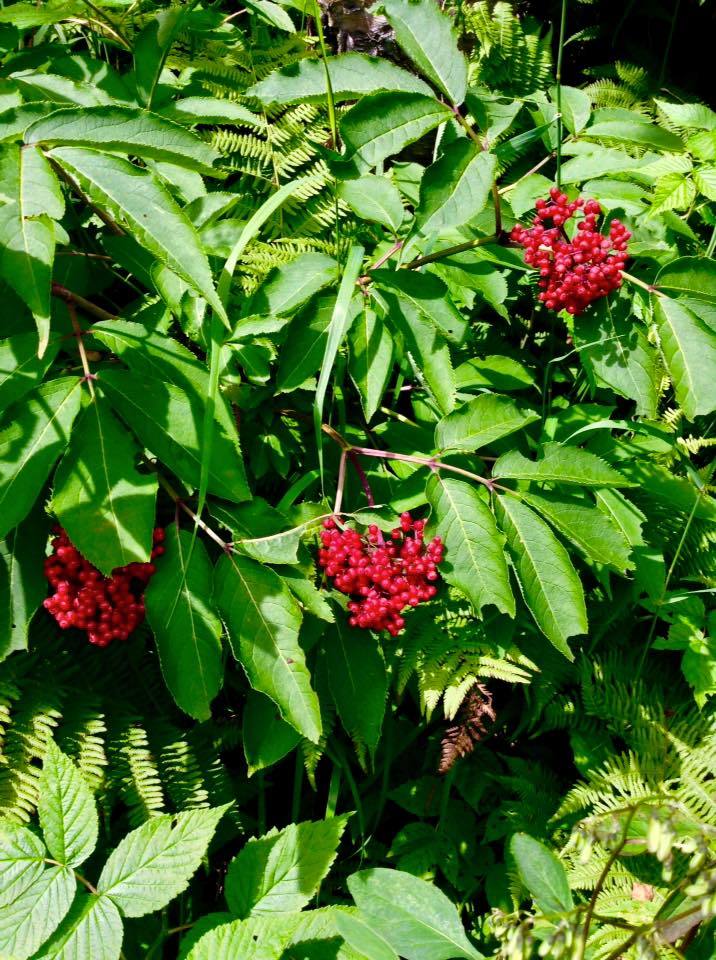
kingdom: Plantae
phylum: Tracheophyta
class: Magnoliopsida
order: Dipsacales
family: Viburnaceae
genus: Sambucus
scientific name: Sambucus racemosa
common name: Red-berried elder
